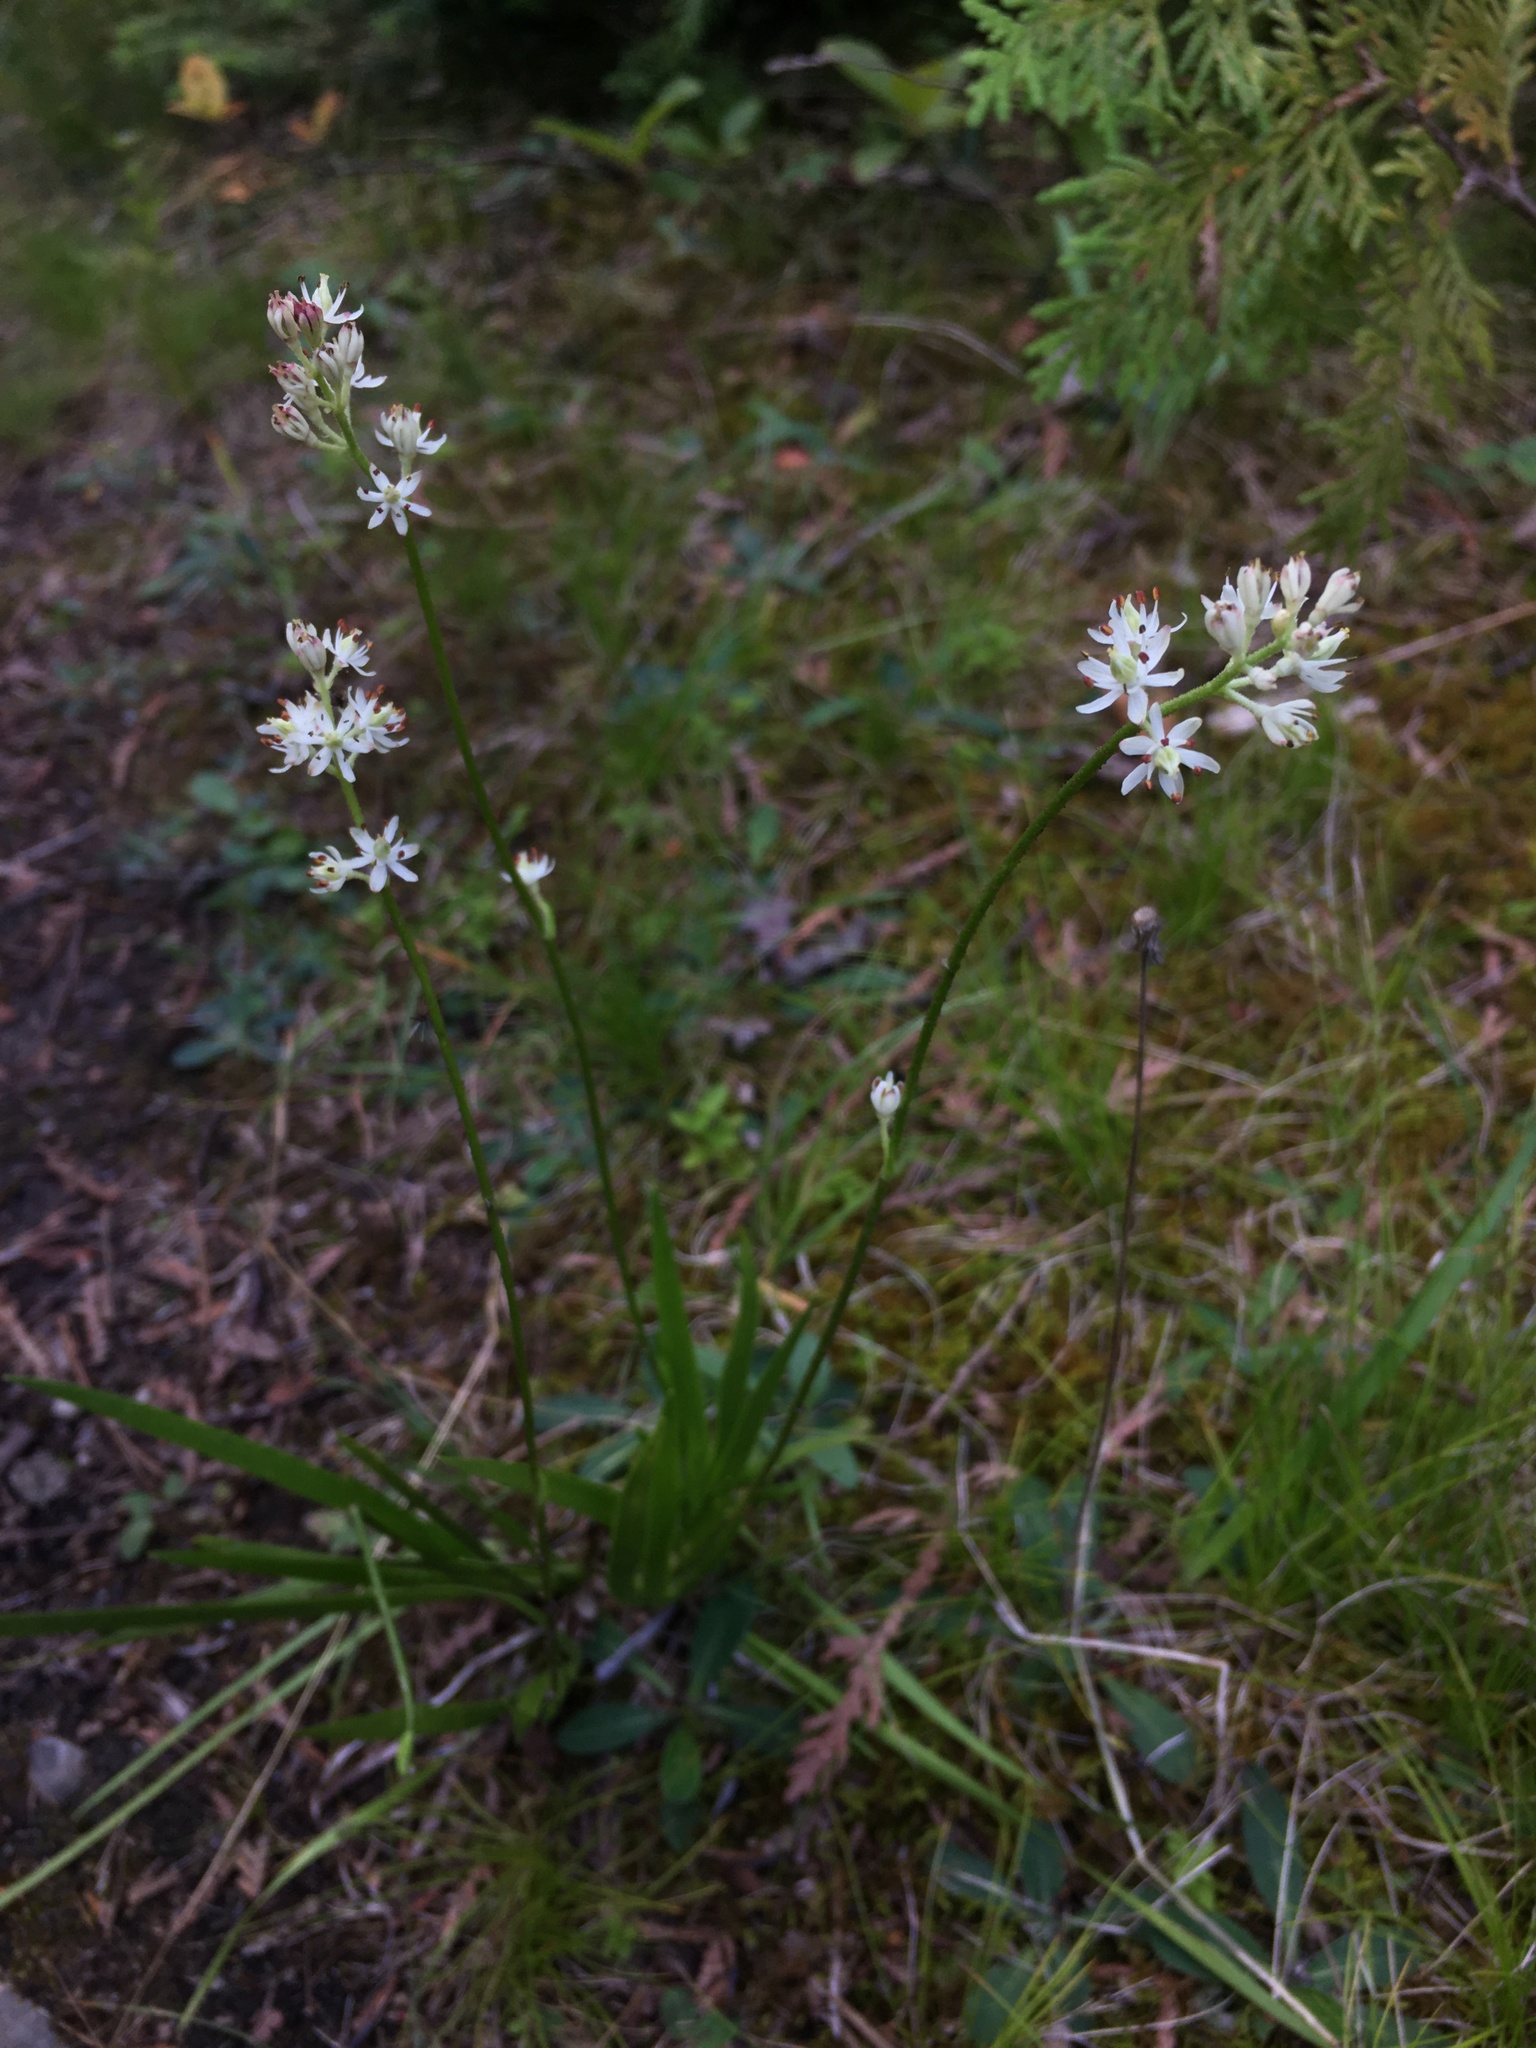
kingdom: Plantae
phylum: Tracheophyta
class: Liliopsida
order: Alismatales
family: Tofieldiaceae
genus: Triantha
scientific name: Triantha glutinosa
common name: Glutinous tofieldia
